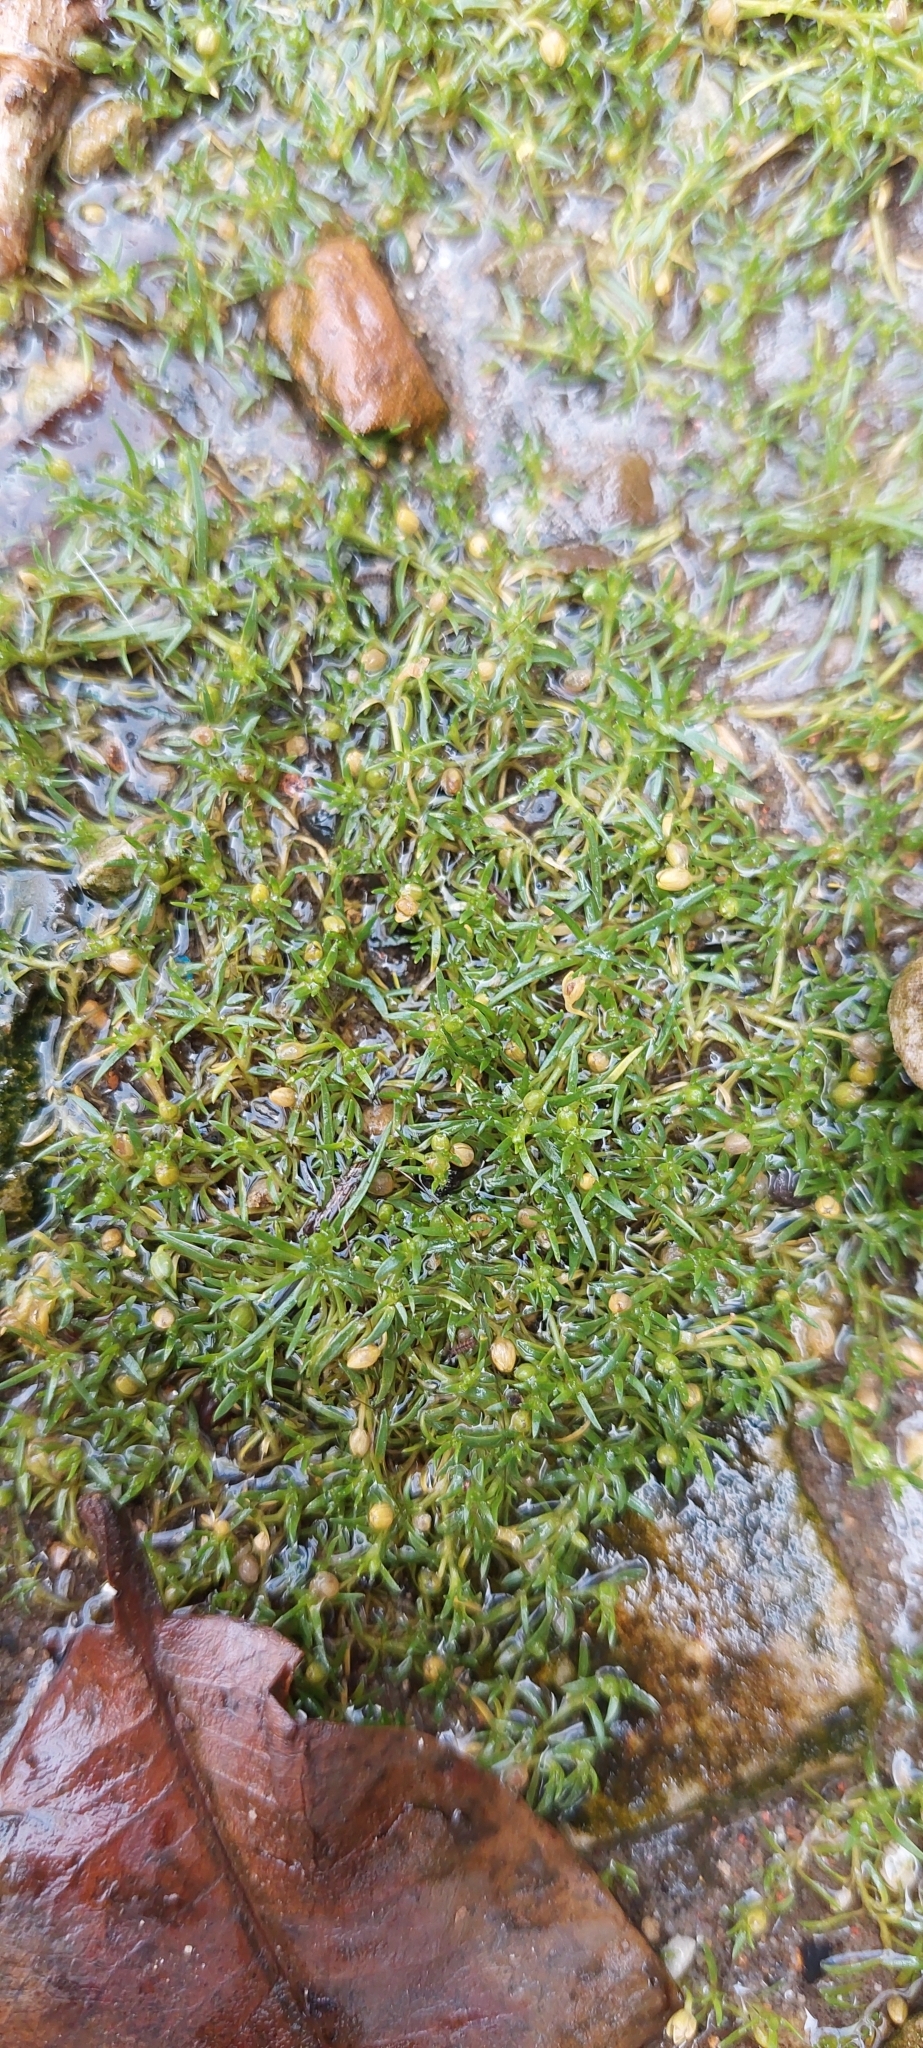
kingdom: Plantae
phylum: Tracheophyta
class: Magnoliopsida
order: Caryophyllales
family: Caryophyllaceae
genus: Sagina
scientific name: Sagina procumbens
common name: Procumbent pearlwort
